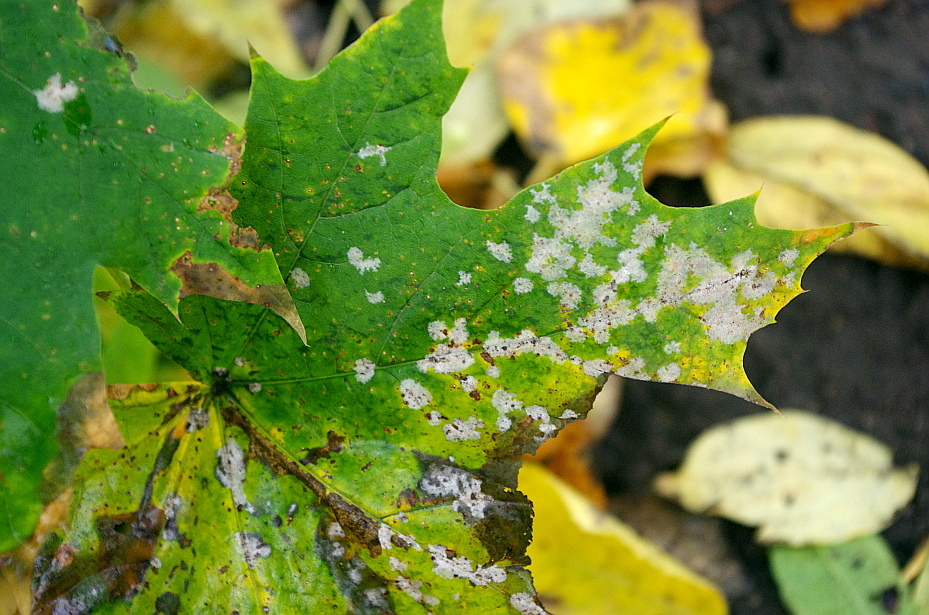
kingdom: Fungi
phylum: Ascomycota
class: Leotiomycetes
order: Helotiales
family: Erysiphaceae
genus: Sawadaea
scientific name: Sawadaea tulasnei
